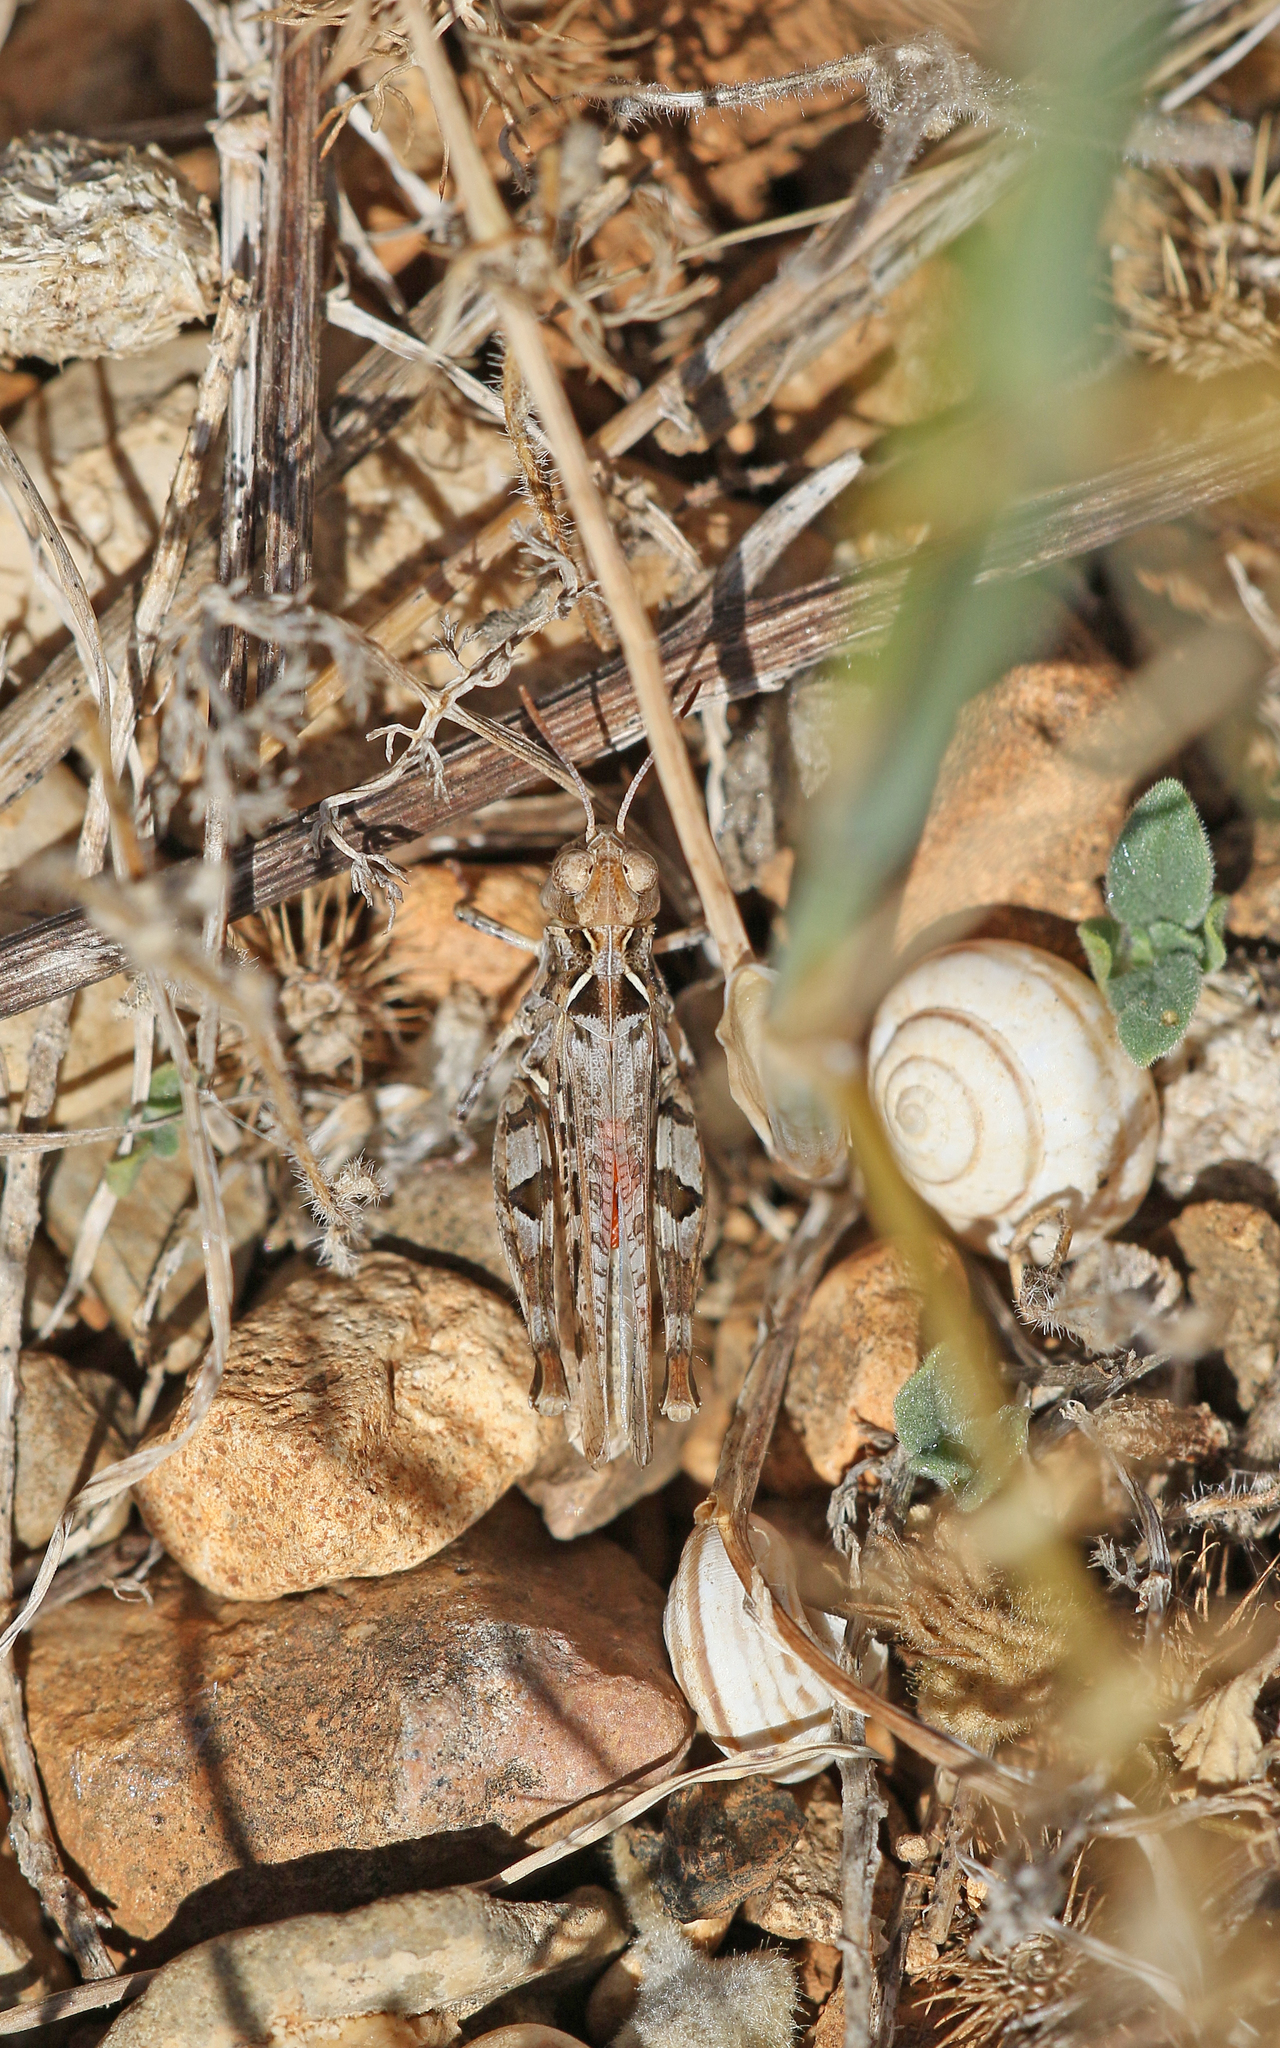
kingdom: Animalia
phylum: Arthropoda
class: Insecta
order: Orthoptera
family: Acrididae
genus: Dociostaurus
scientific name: Dociostaurus jagoi
